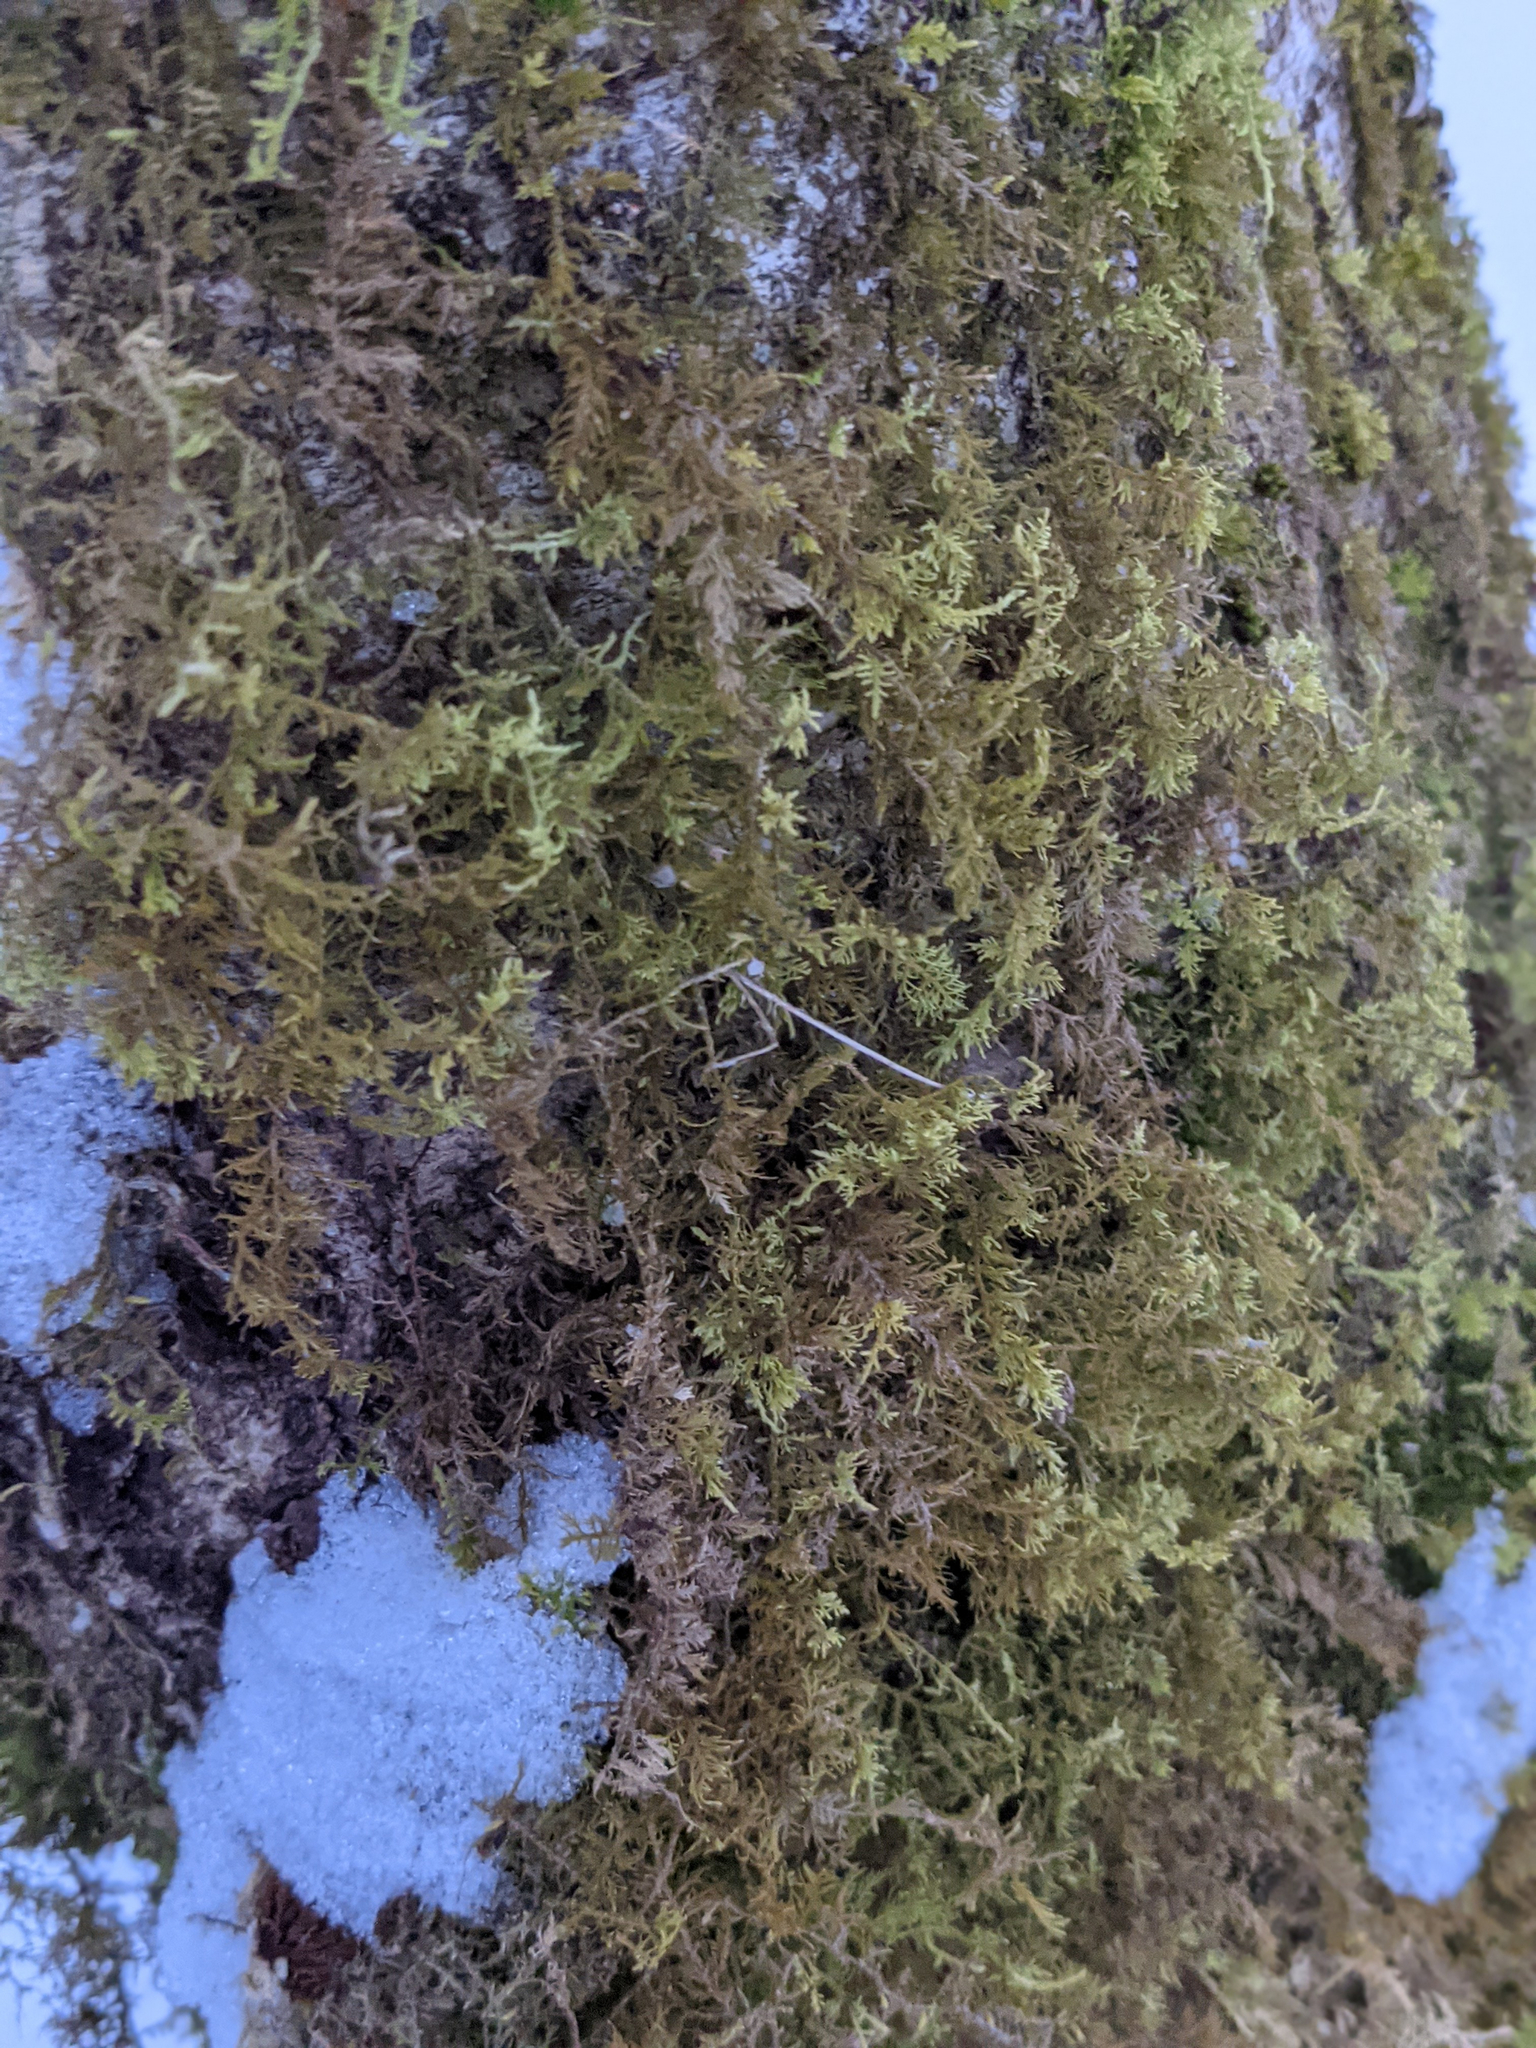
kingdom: Plantae
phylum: Bryophyta
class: Bryopsida
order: Hypnales
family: Thuidiaceae
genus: Thuidium
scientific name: Thuidium delicatulum
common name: Delicate fern moss
